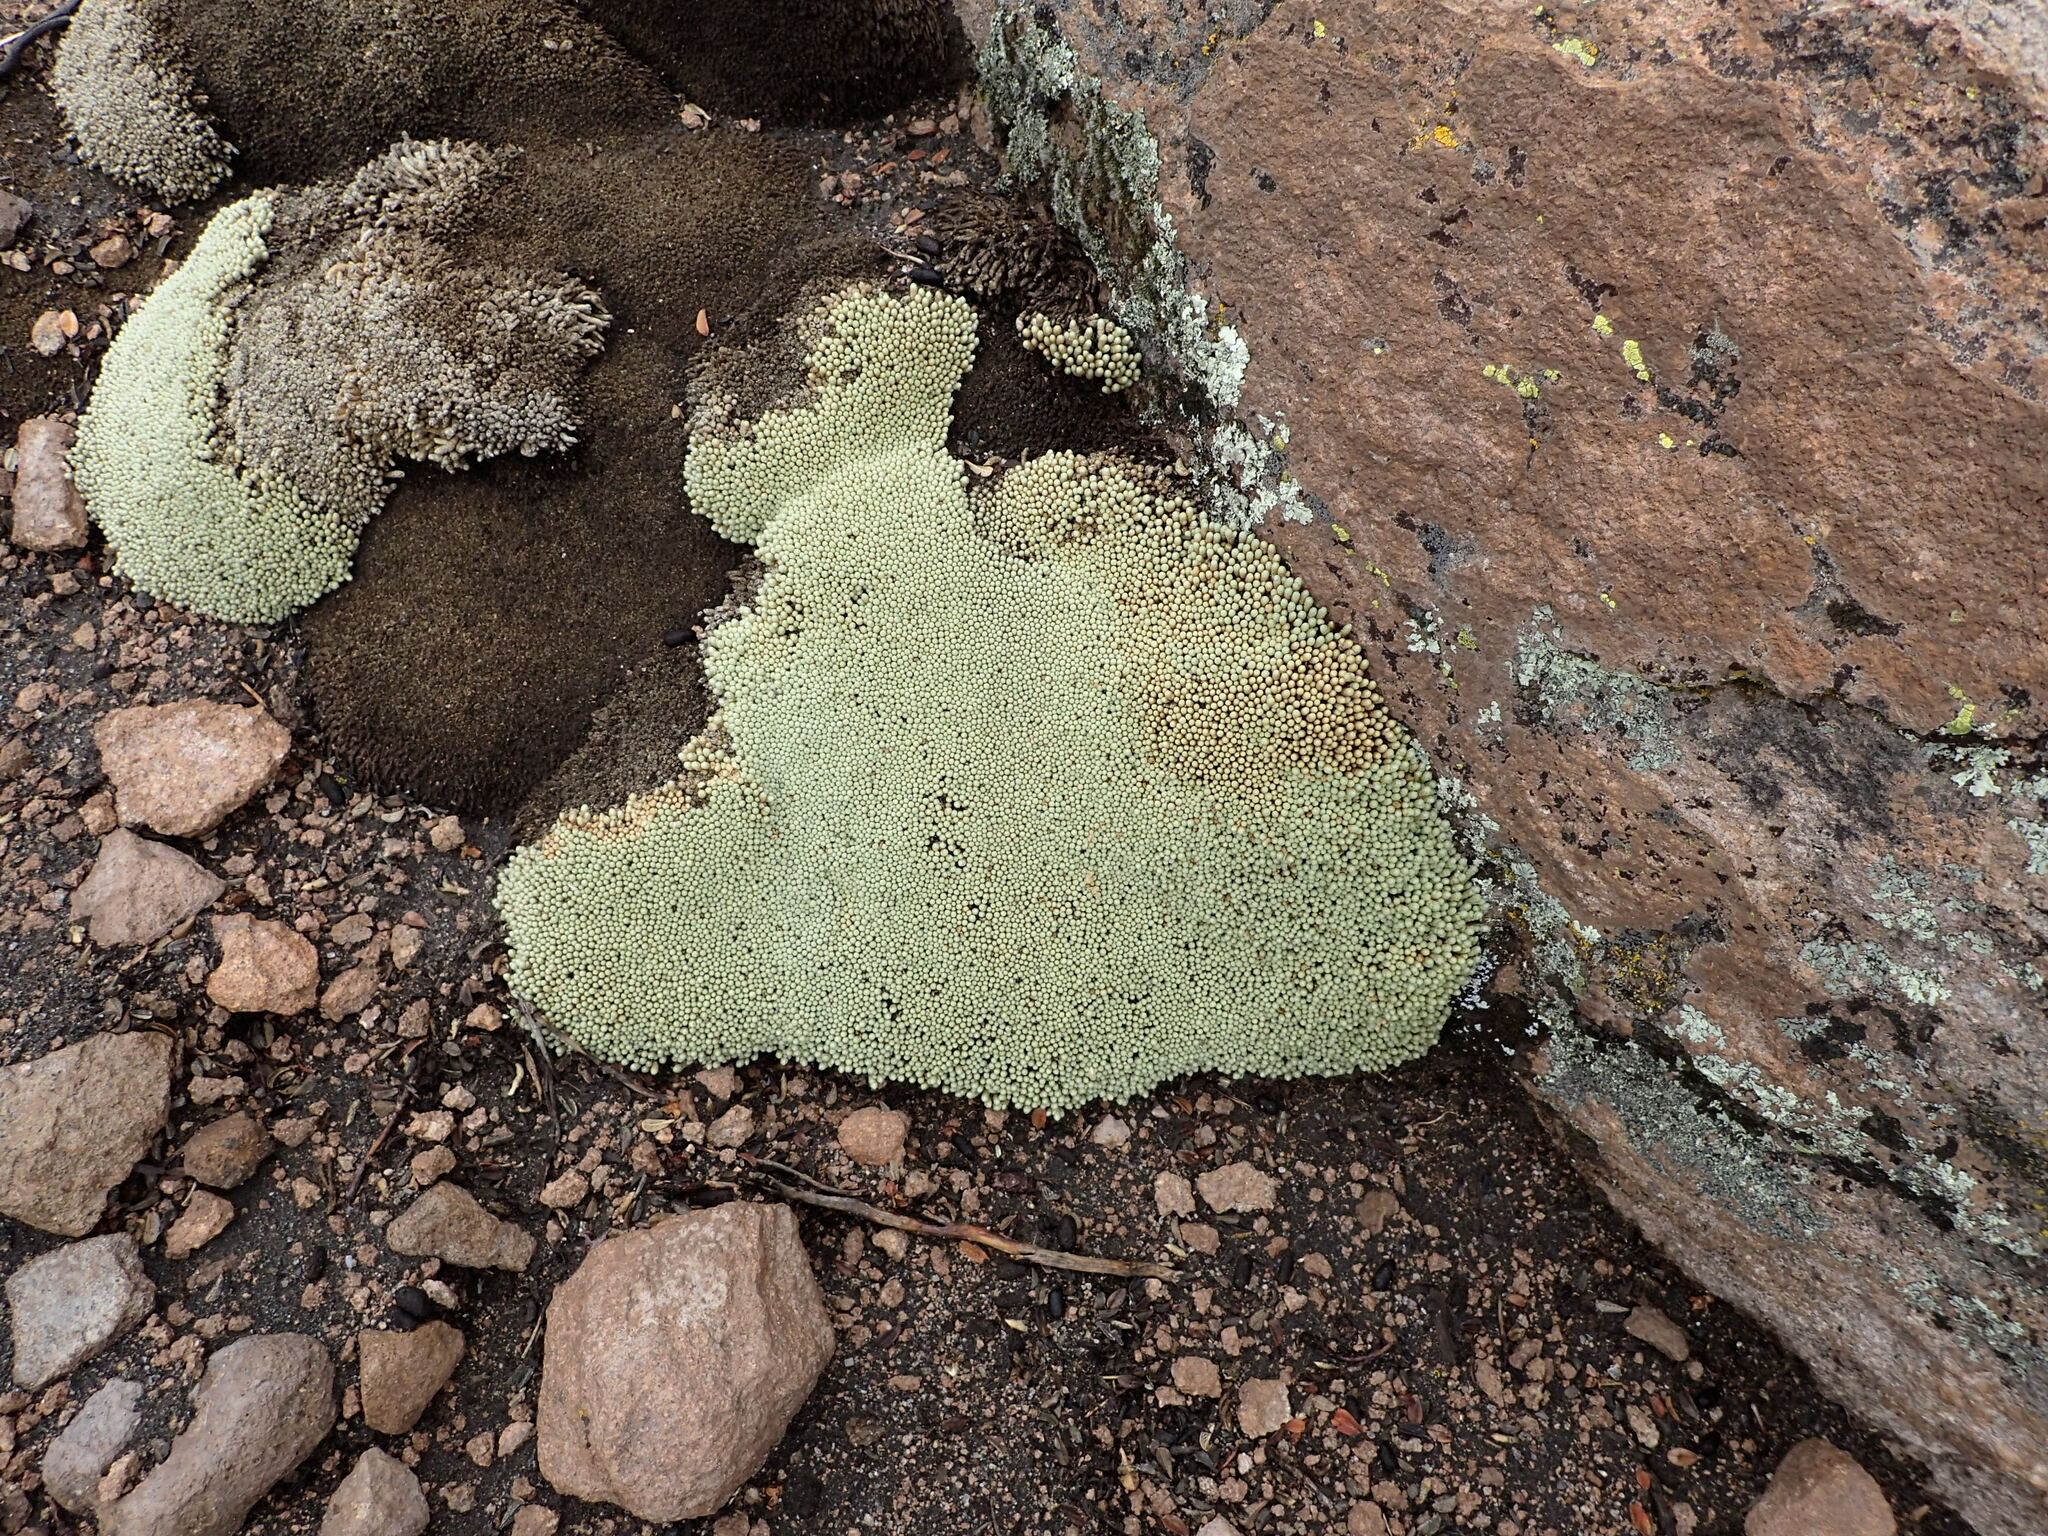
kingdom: Plantae
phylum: Tracheophyta
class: Magnoliopsida
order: Caryophyllales
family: Caryophyllaceae
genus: Pycnophyllum
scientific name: Pycnophyllum molle
